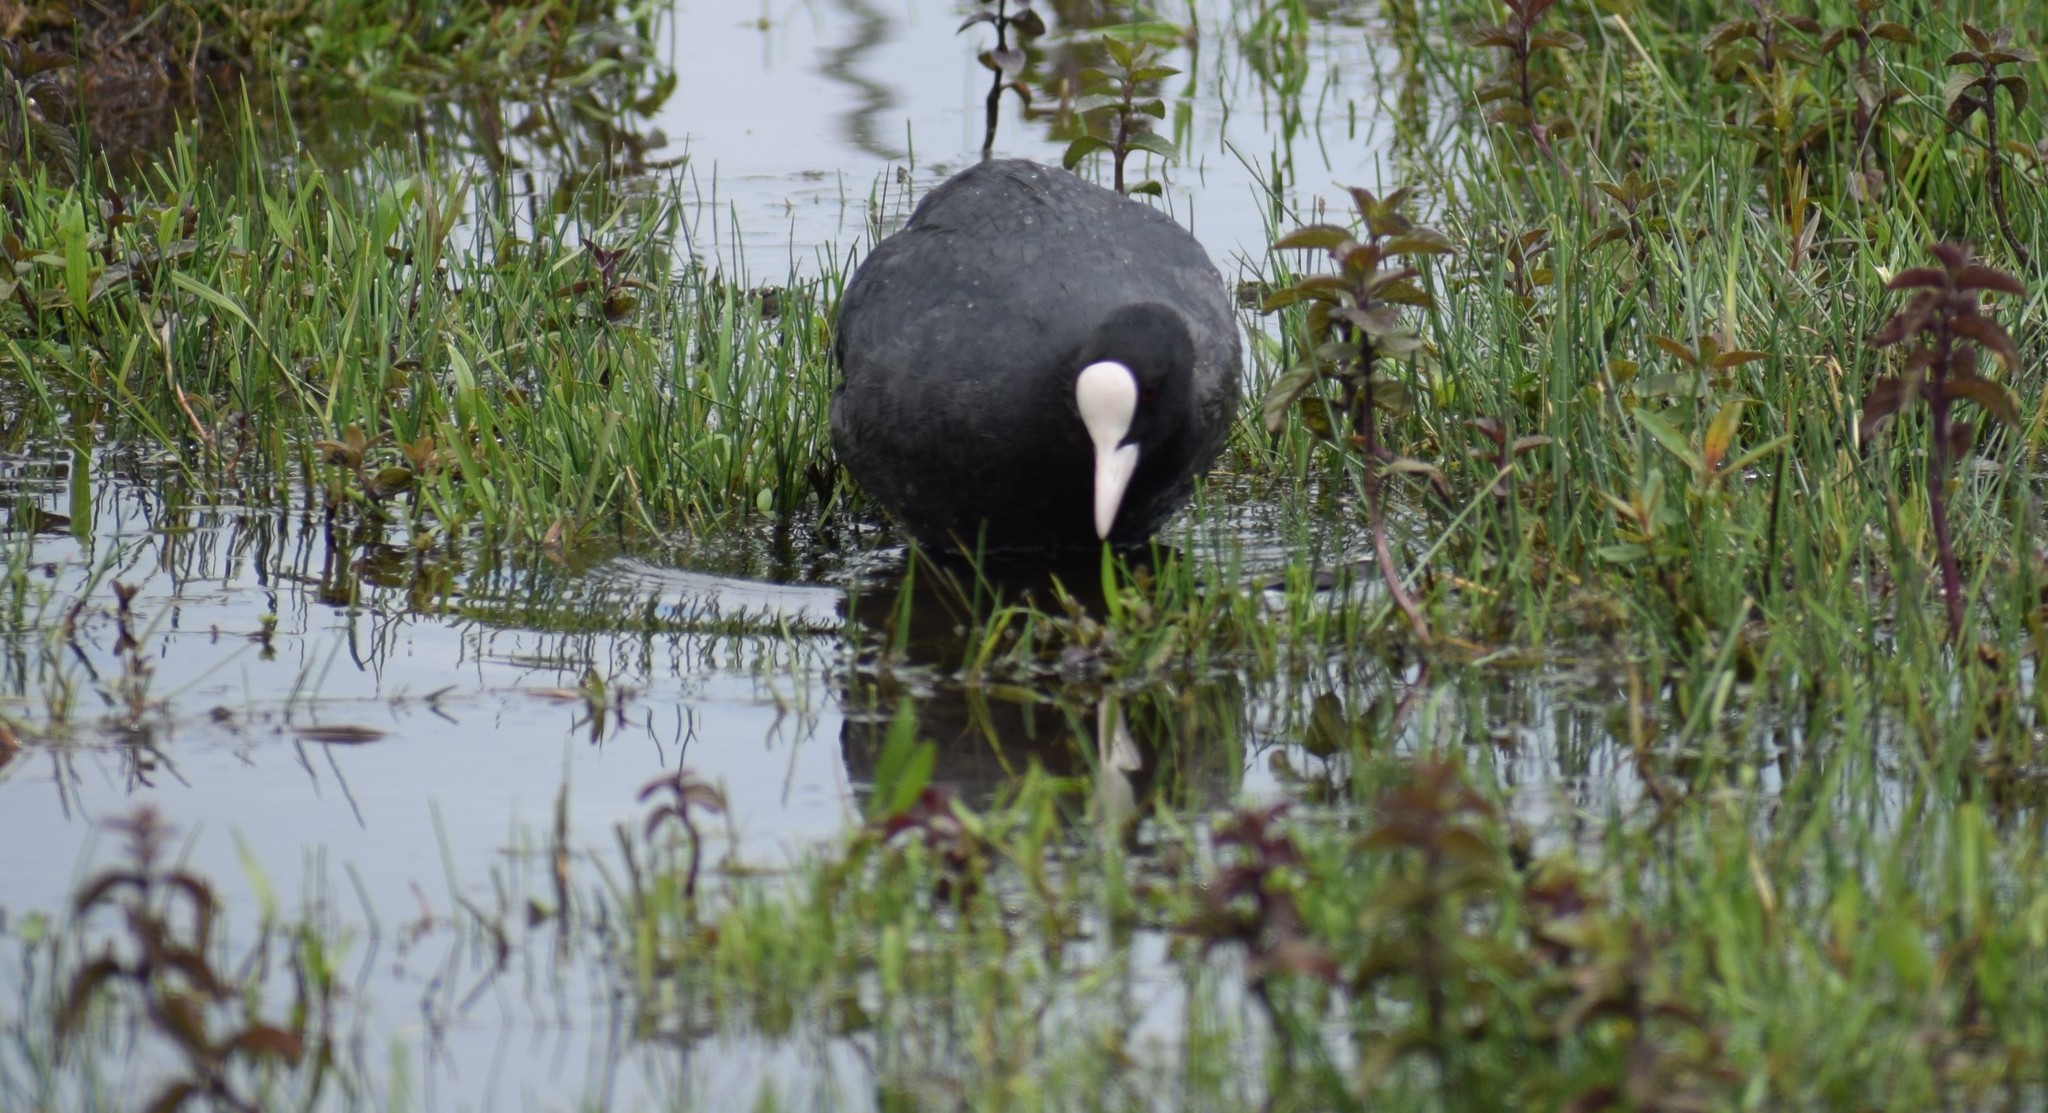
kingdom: Animalia
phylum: Chordata
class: Aves
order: Gruiformes
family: Rallidae
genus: Fulica
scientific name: Fulica atra
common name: Eurasian coot
